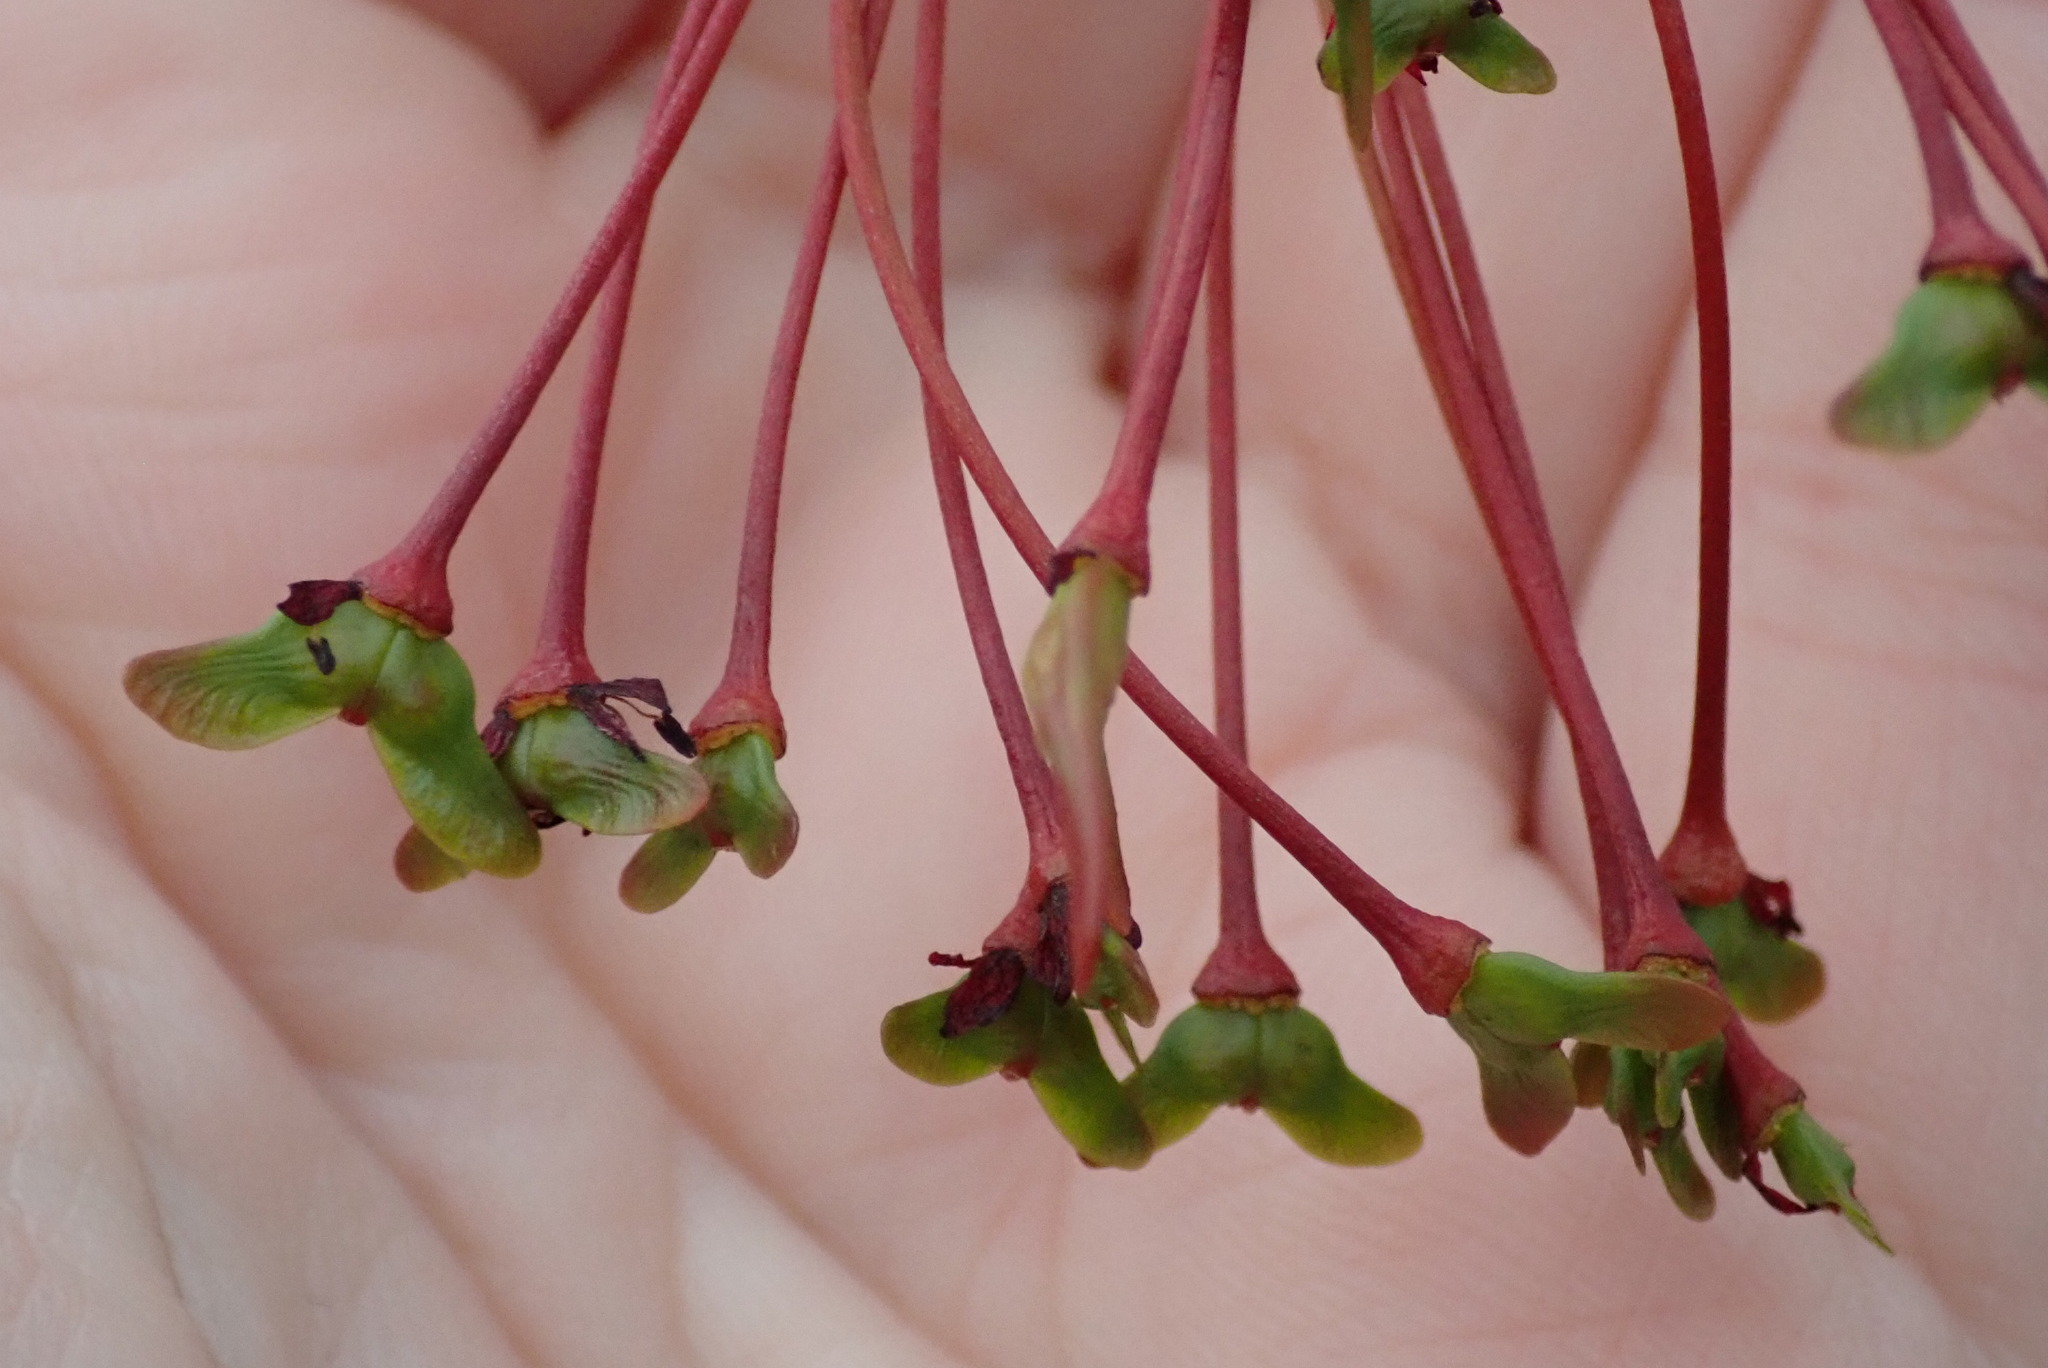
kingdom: Plantae
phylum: Tracheophyta
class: Magnoliopsida
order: Sapindales
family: Sapindaceae
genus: Acer
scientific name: Acer rubrum
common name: Red maple
